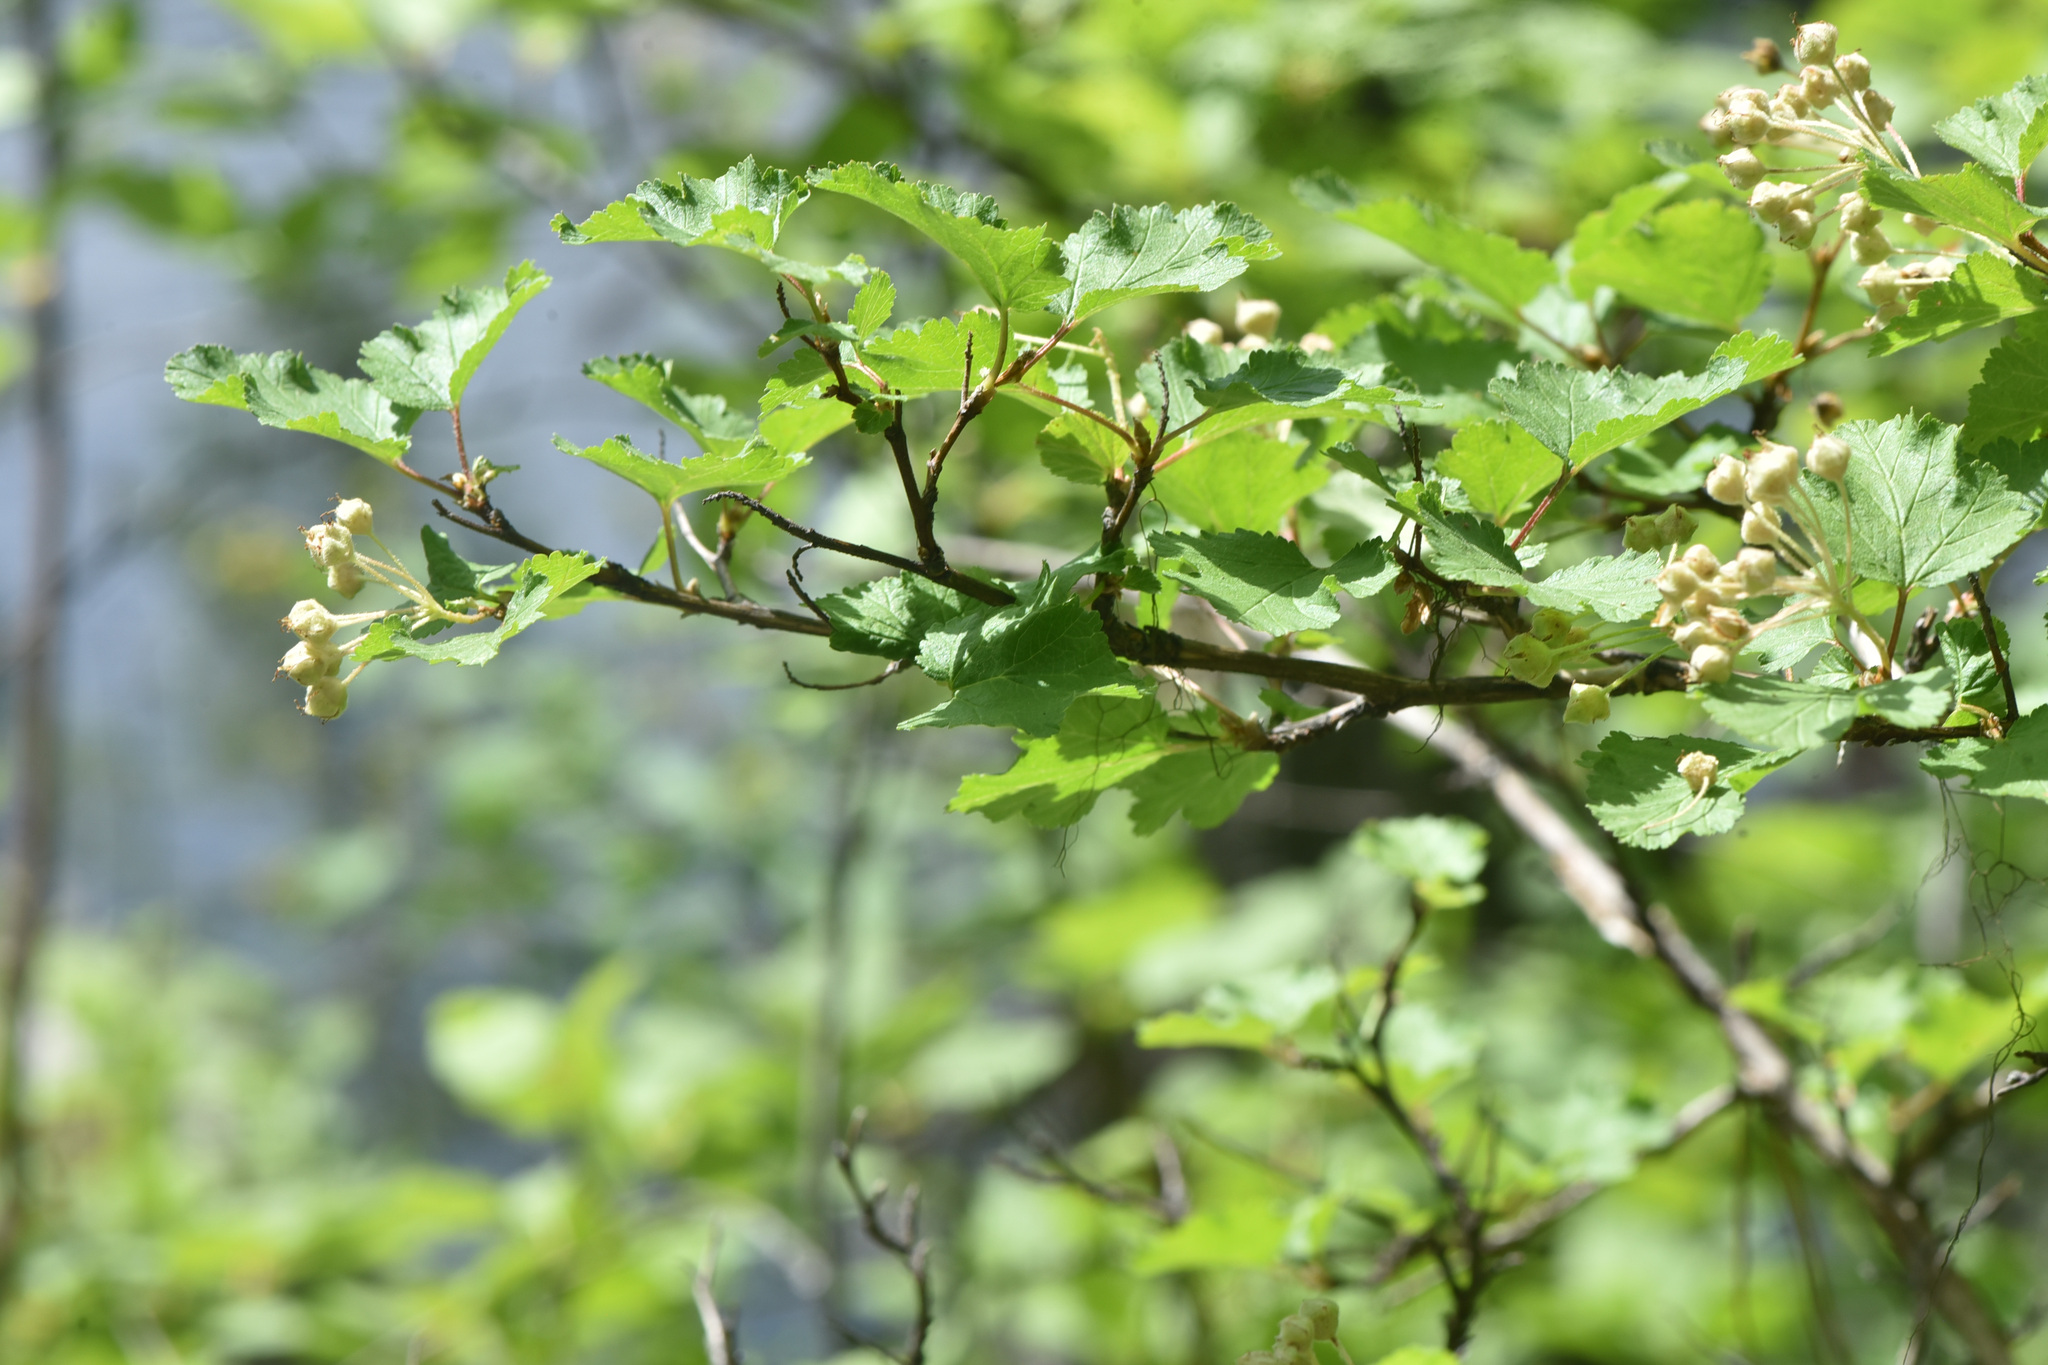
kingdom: Plantae
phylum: Tracheophyta
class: Magnoliopsida
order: Rosales
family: Rosaceae
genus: Physocarpus
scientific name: Physocarpus malvaceus
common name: Mallow ninebark
